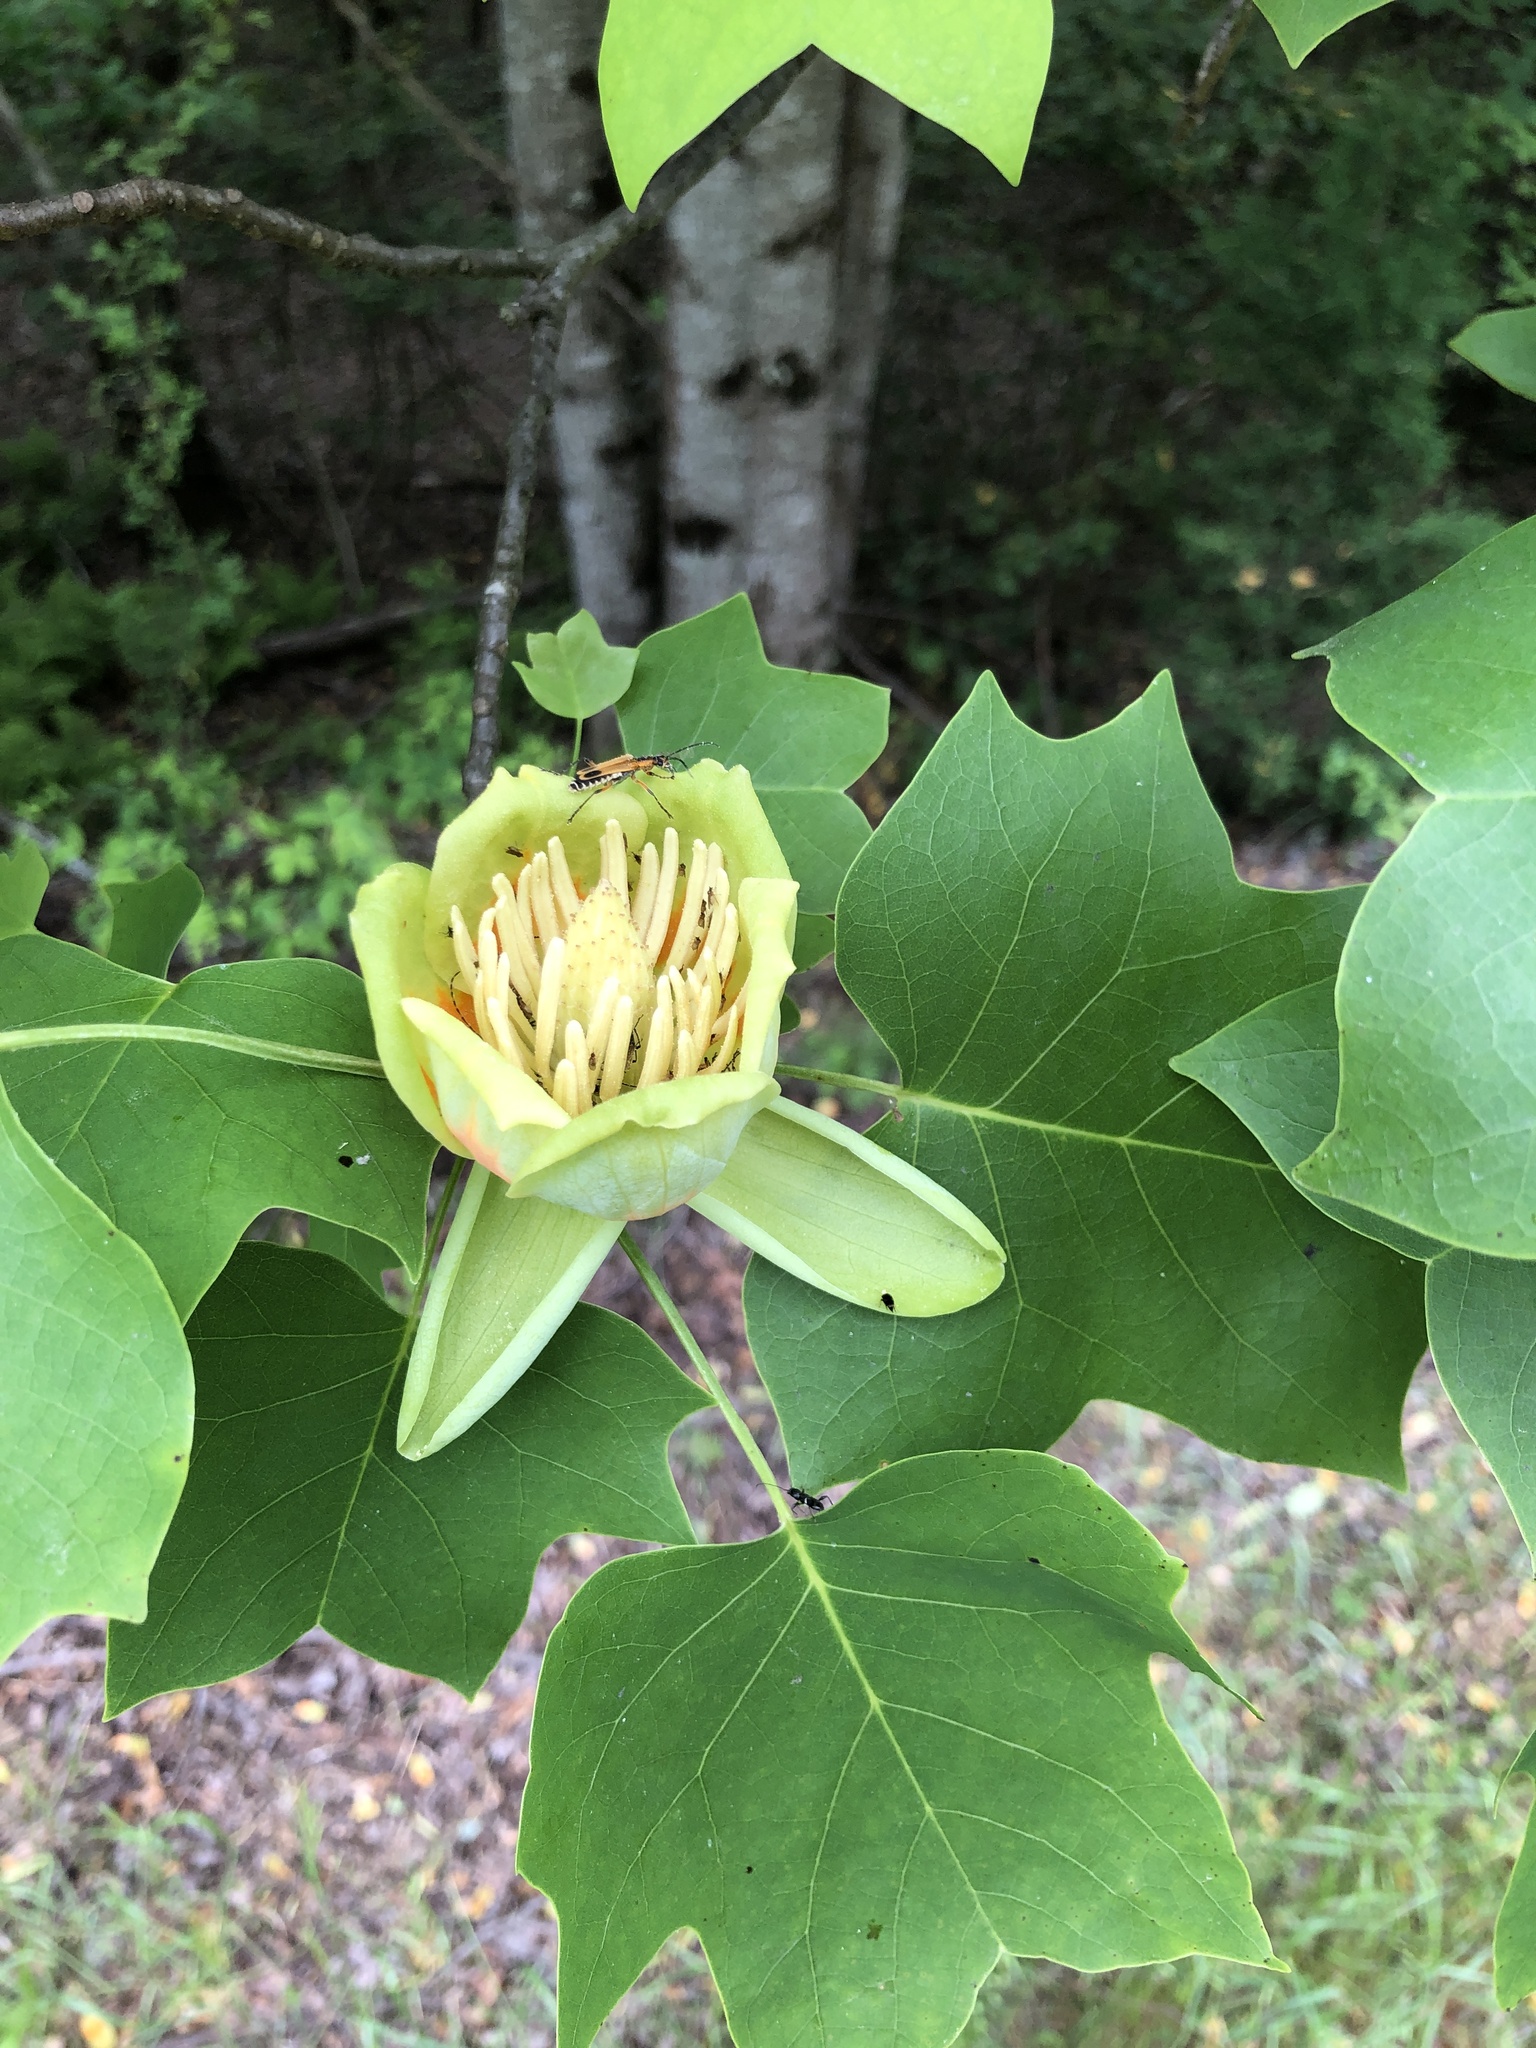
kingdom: Plantae
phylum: Tracheophyta
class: Magnoliopsida
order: Magnoliales
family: Magnoliaceae
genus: Liriodendron
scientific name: Liriodendron tulipifera
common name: Tulip tree
